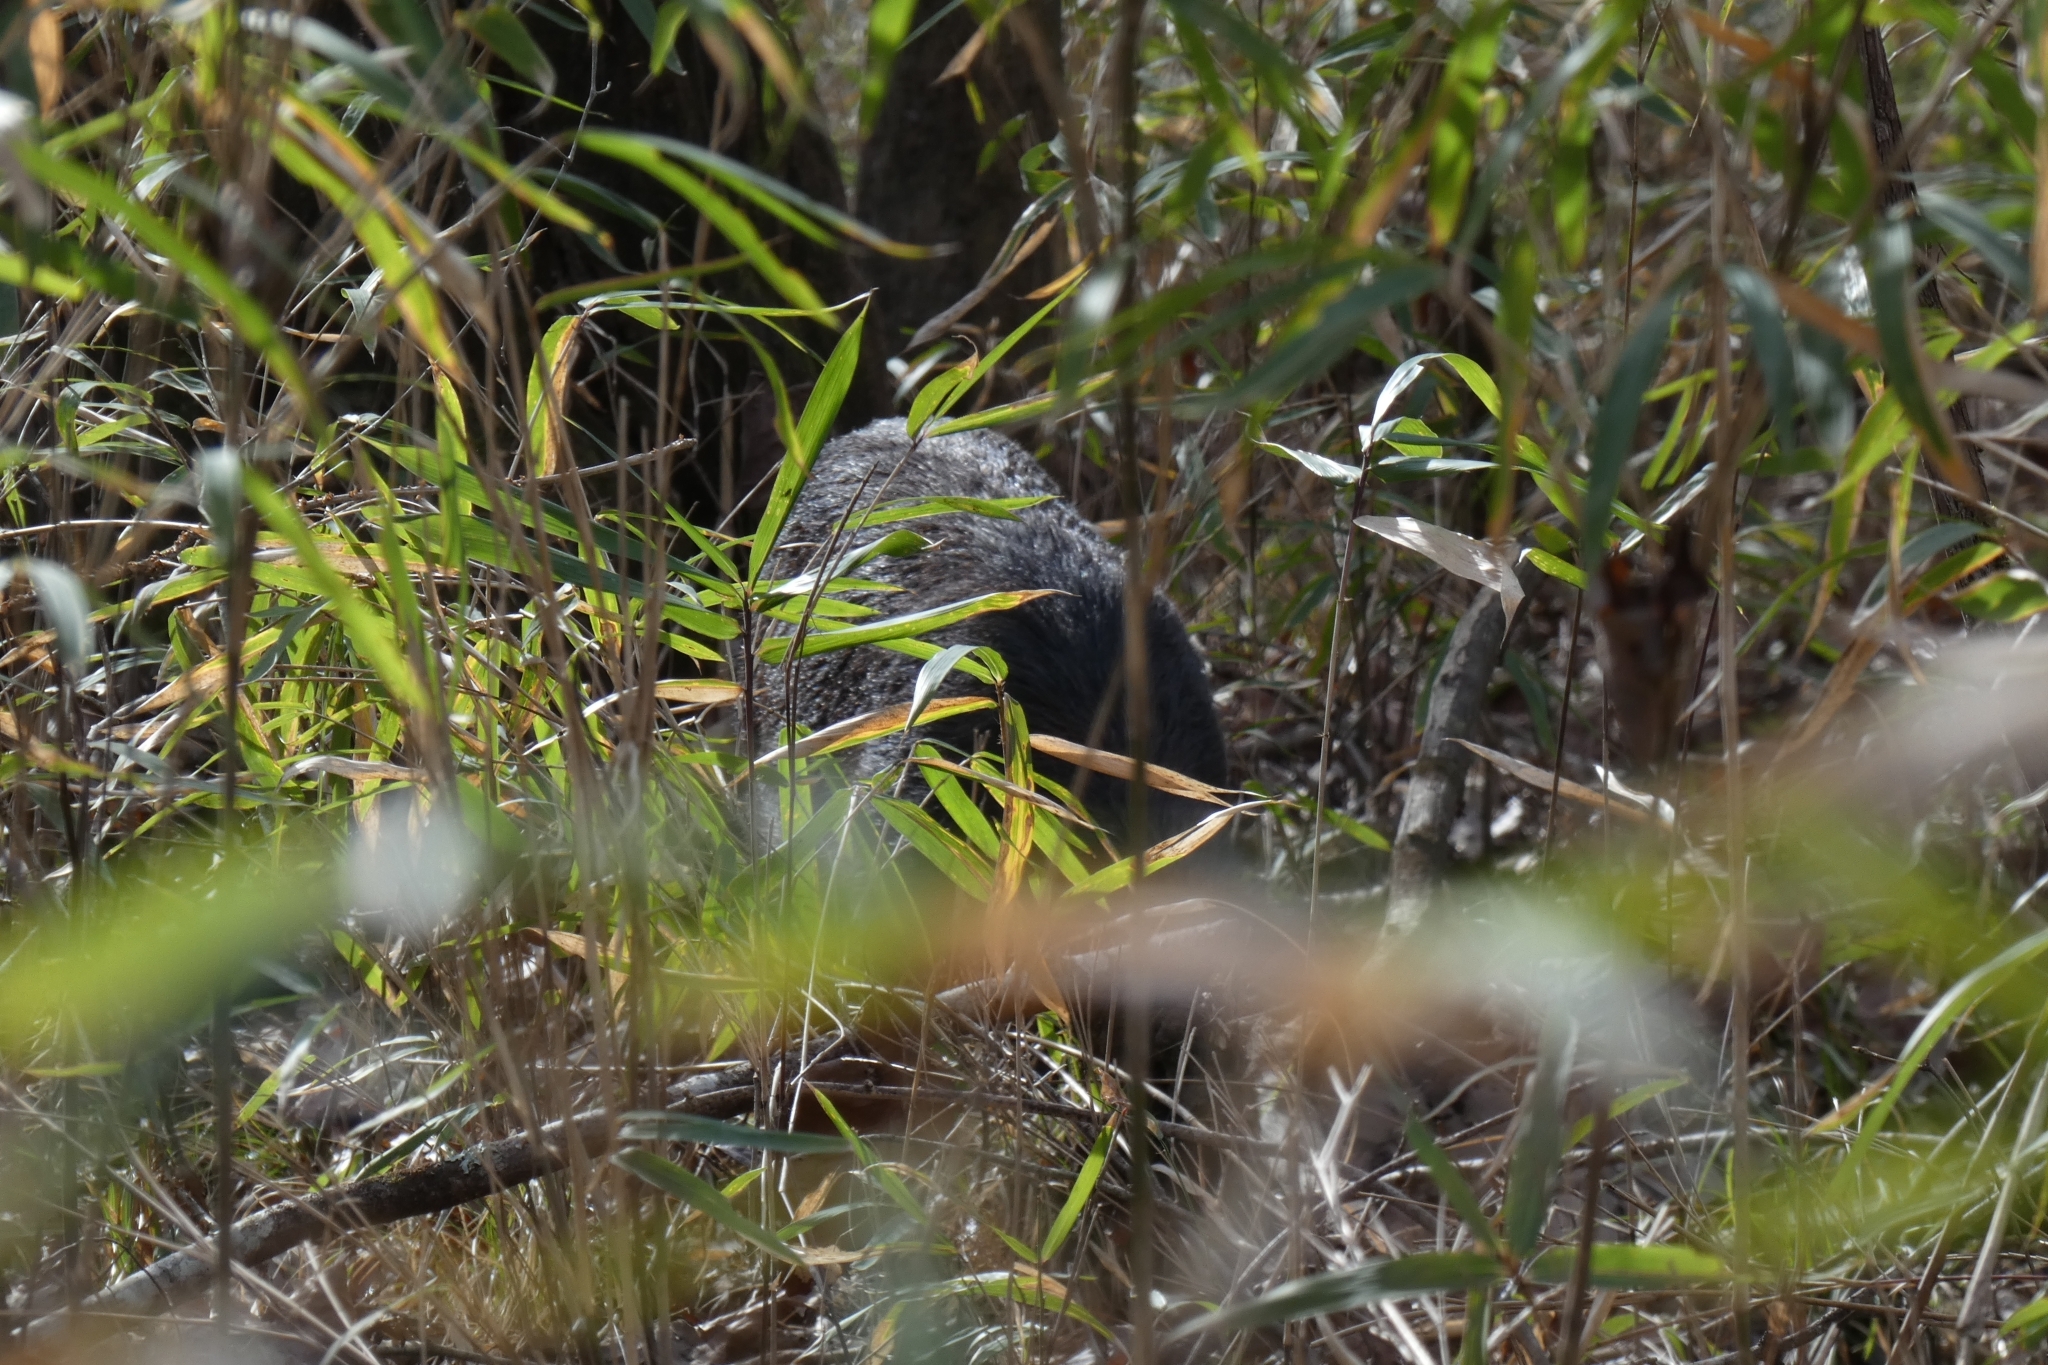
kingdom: Animalia
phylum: Chordata
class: Mammalia
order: Artiodactyla
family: Suidae
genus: Sus
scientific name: Sus scrofa
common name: Wild boar
